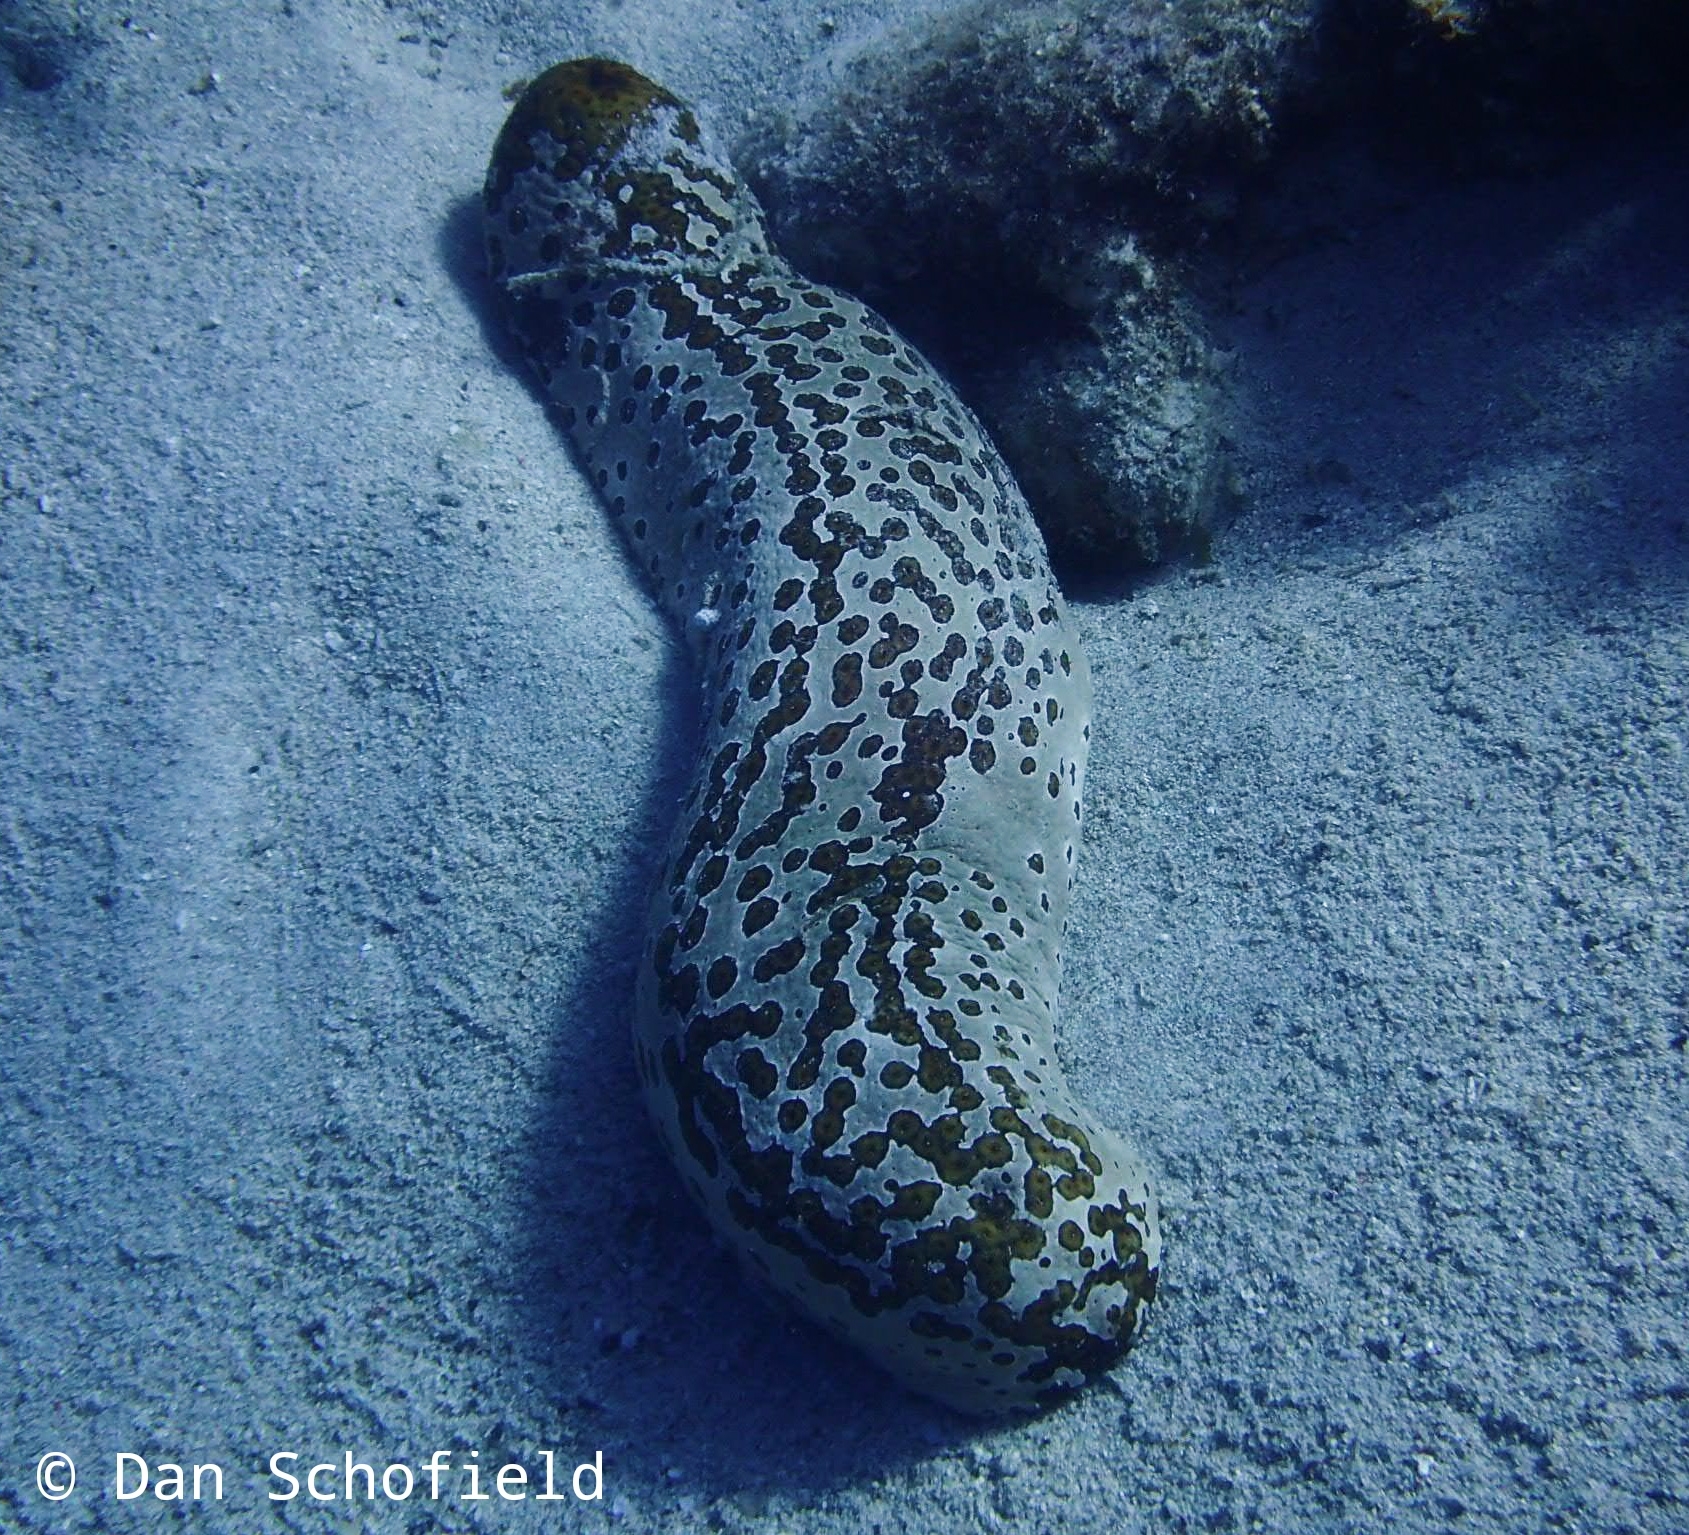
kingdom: Animalia
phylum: Echinodermata
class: Holothuroidea
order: Holothuriida
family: Holothuriidae
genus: Bohadschia
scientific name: Bohadschia argus
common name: Leopardfish
